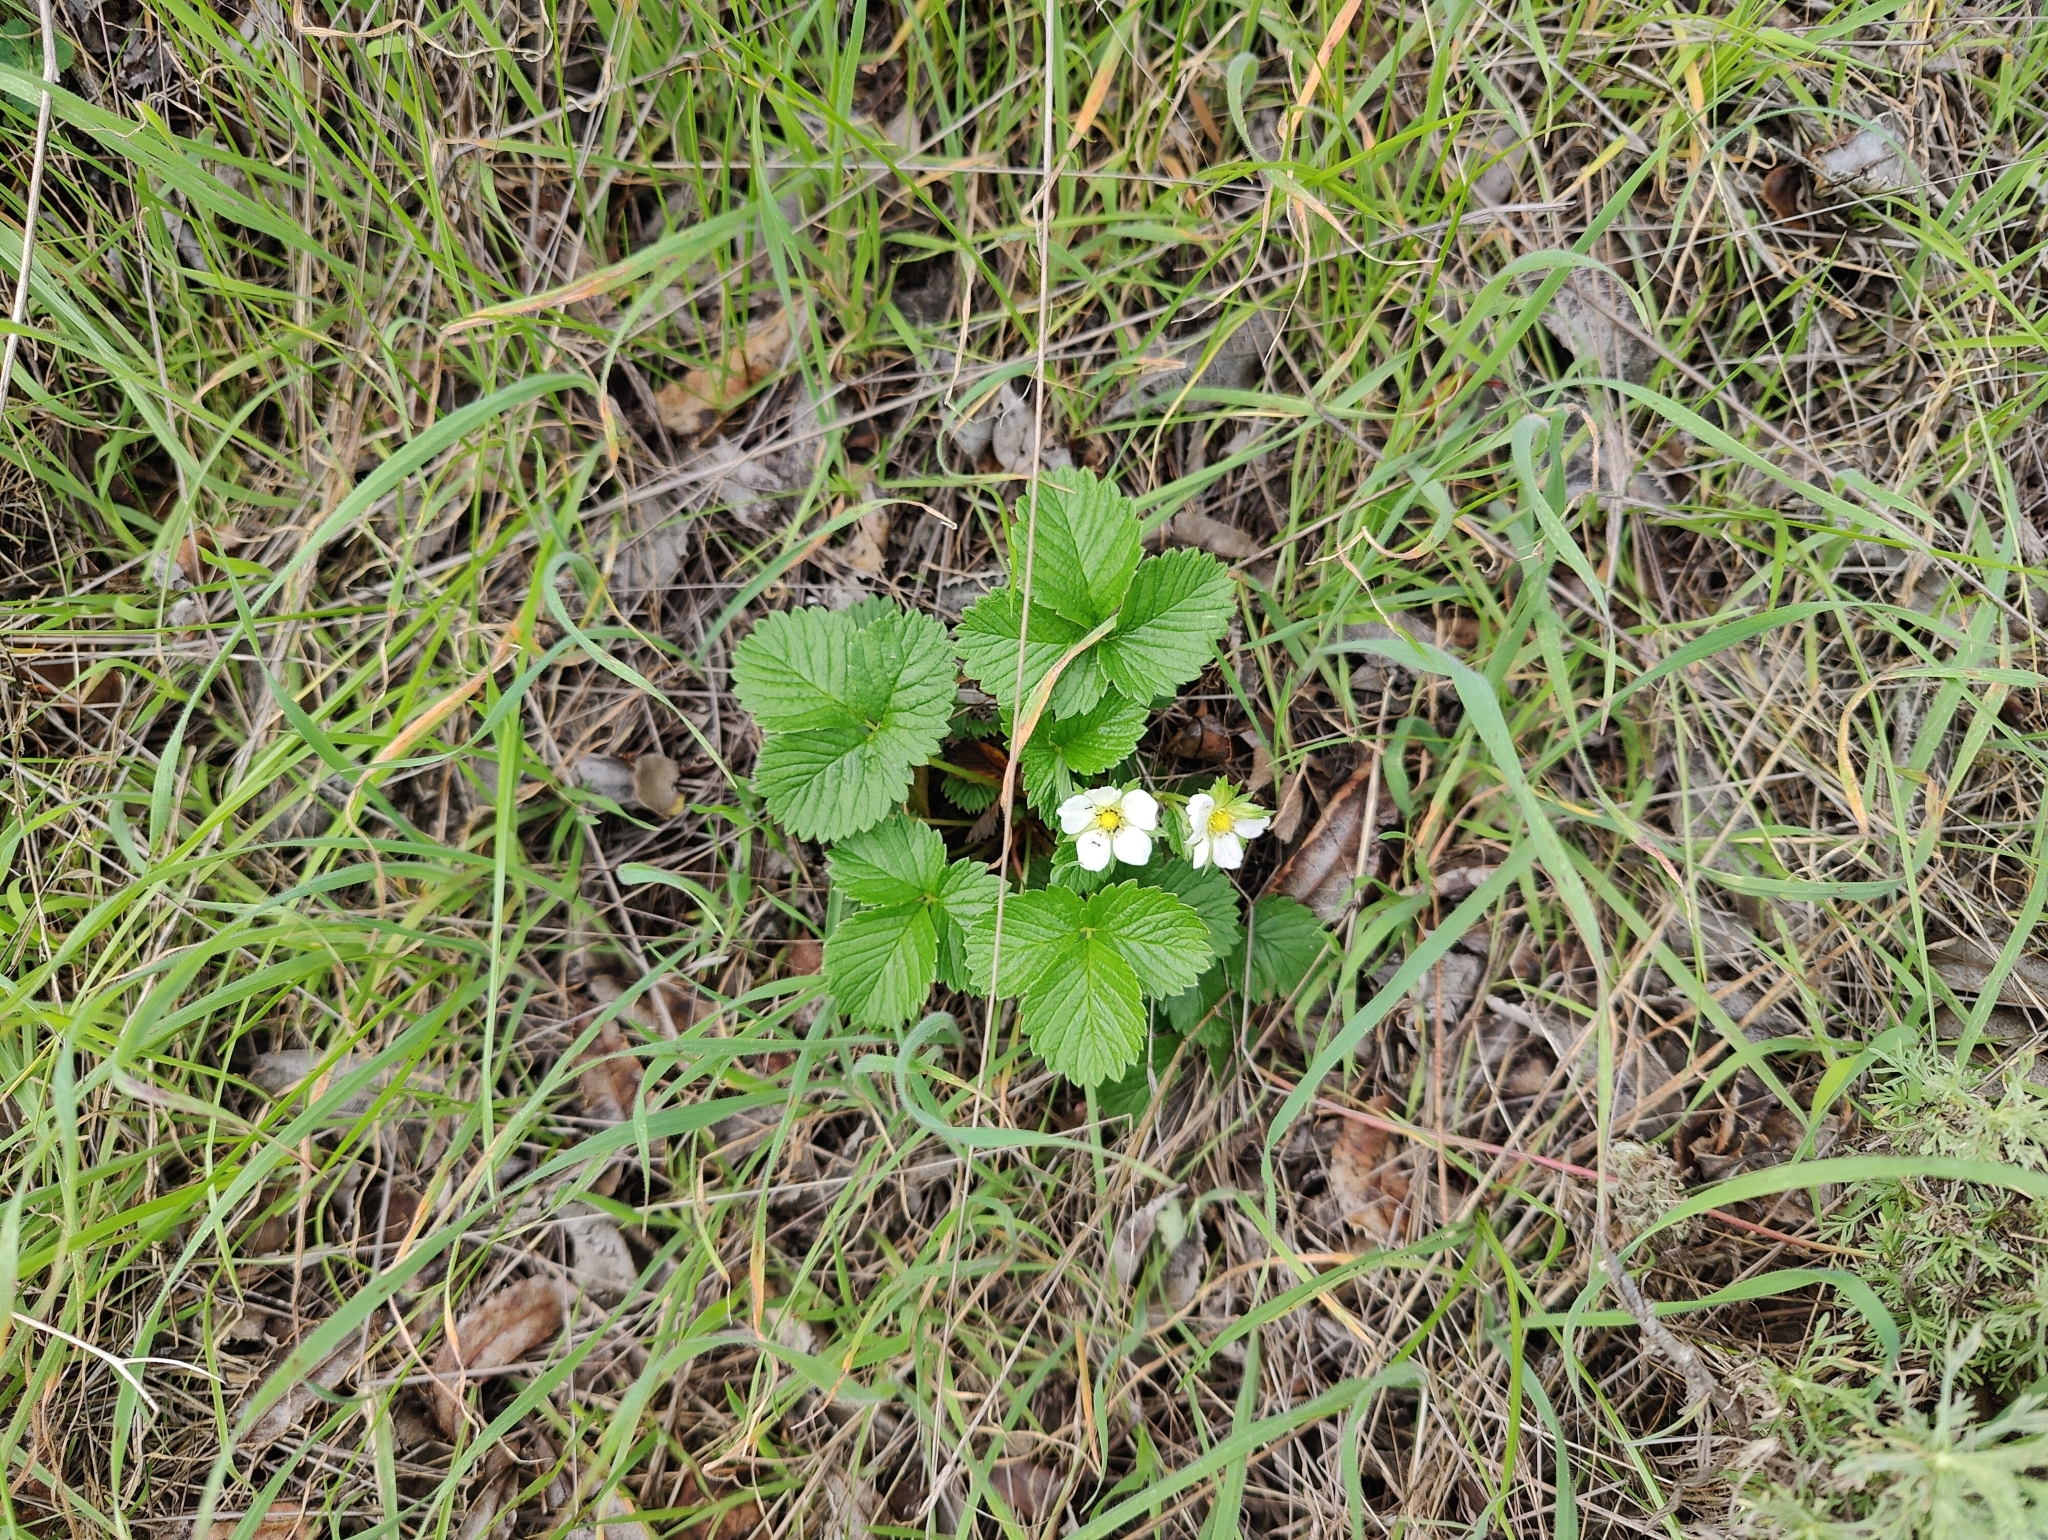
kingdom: Plantae
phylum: Tracheophyta
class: Magnoliopsida
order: Rosales
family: Rosaceae
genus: Fragaria
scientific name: Fragaria vesca
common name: Wild strawberry
